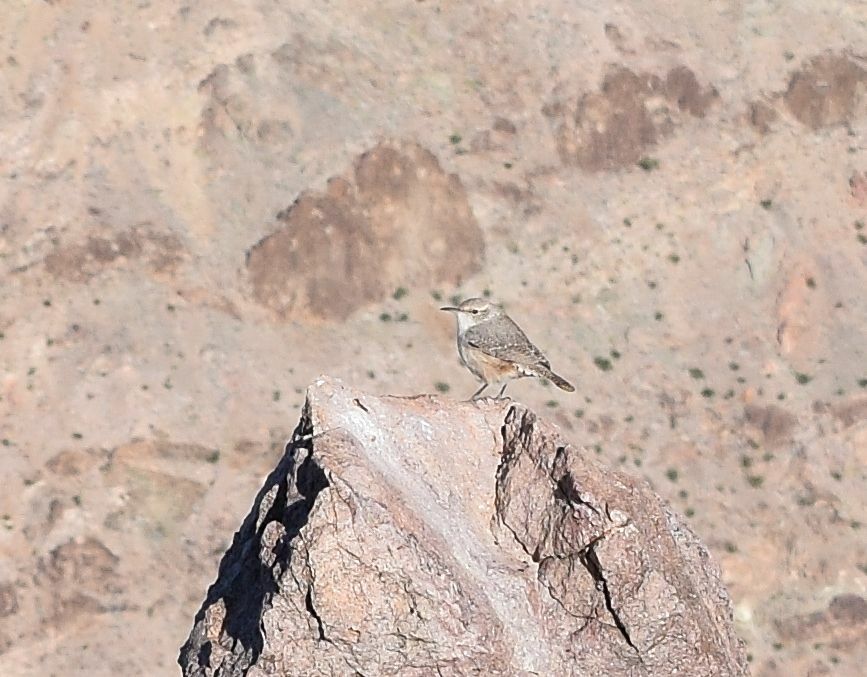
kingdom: Animalia
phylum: Chordata
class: Aves
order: Passeriformes
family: Troglodytidae
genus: Salpinctes
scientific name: Salpinctes obsoletus
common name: Rock wren
